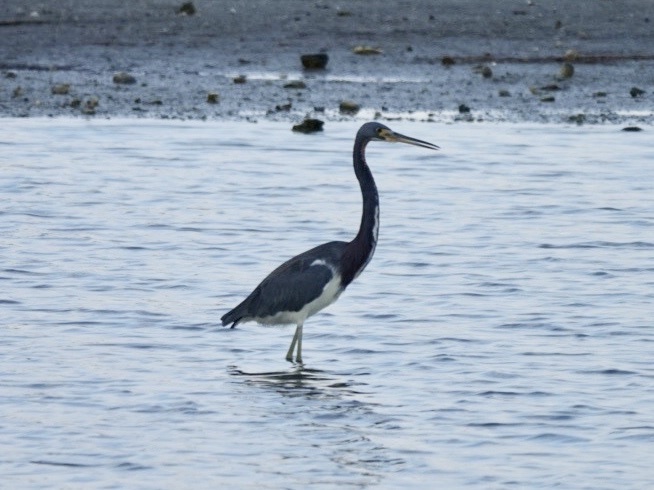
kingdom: Animalia
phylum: Chordata
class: Aves
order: Pelecaniformes
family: Ardeidae
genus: Egretta
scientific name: Egretta tricolor
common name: Tricolored heron
